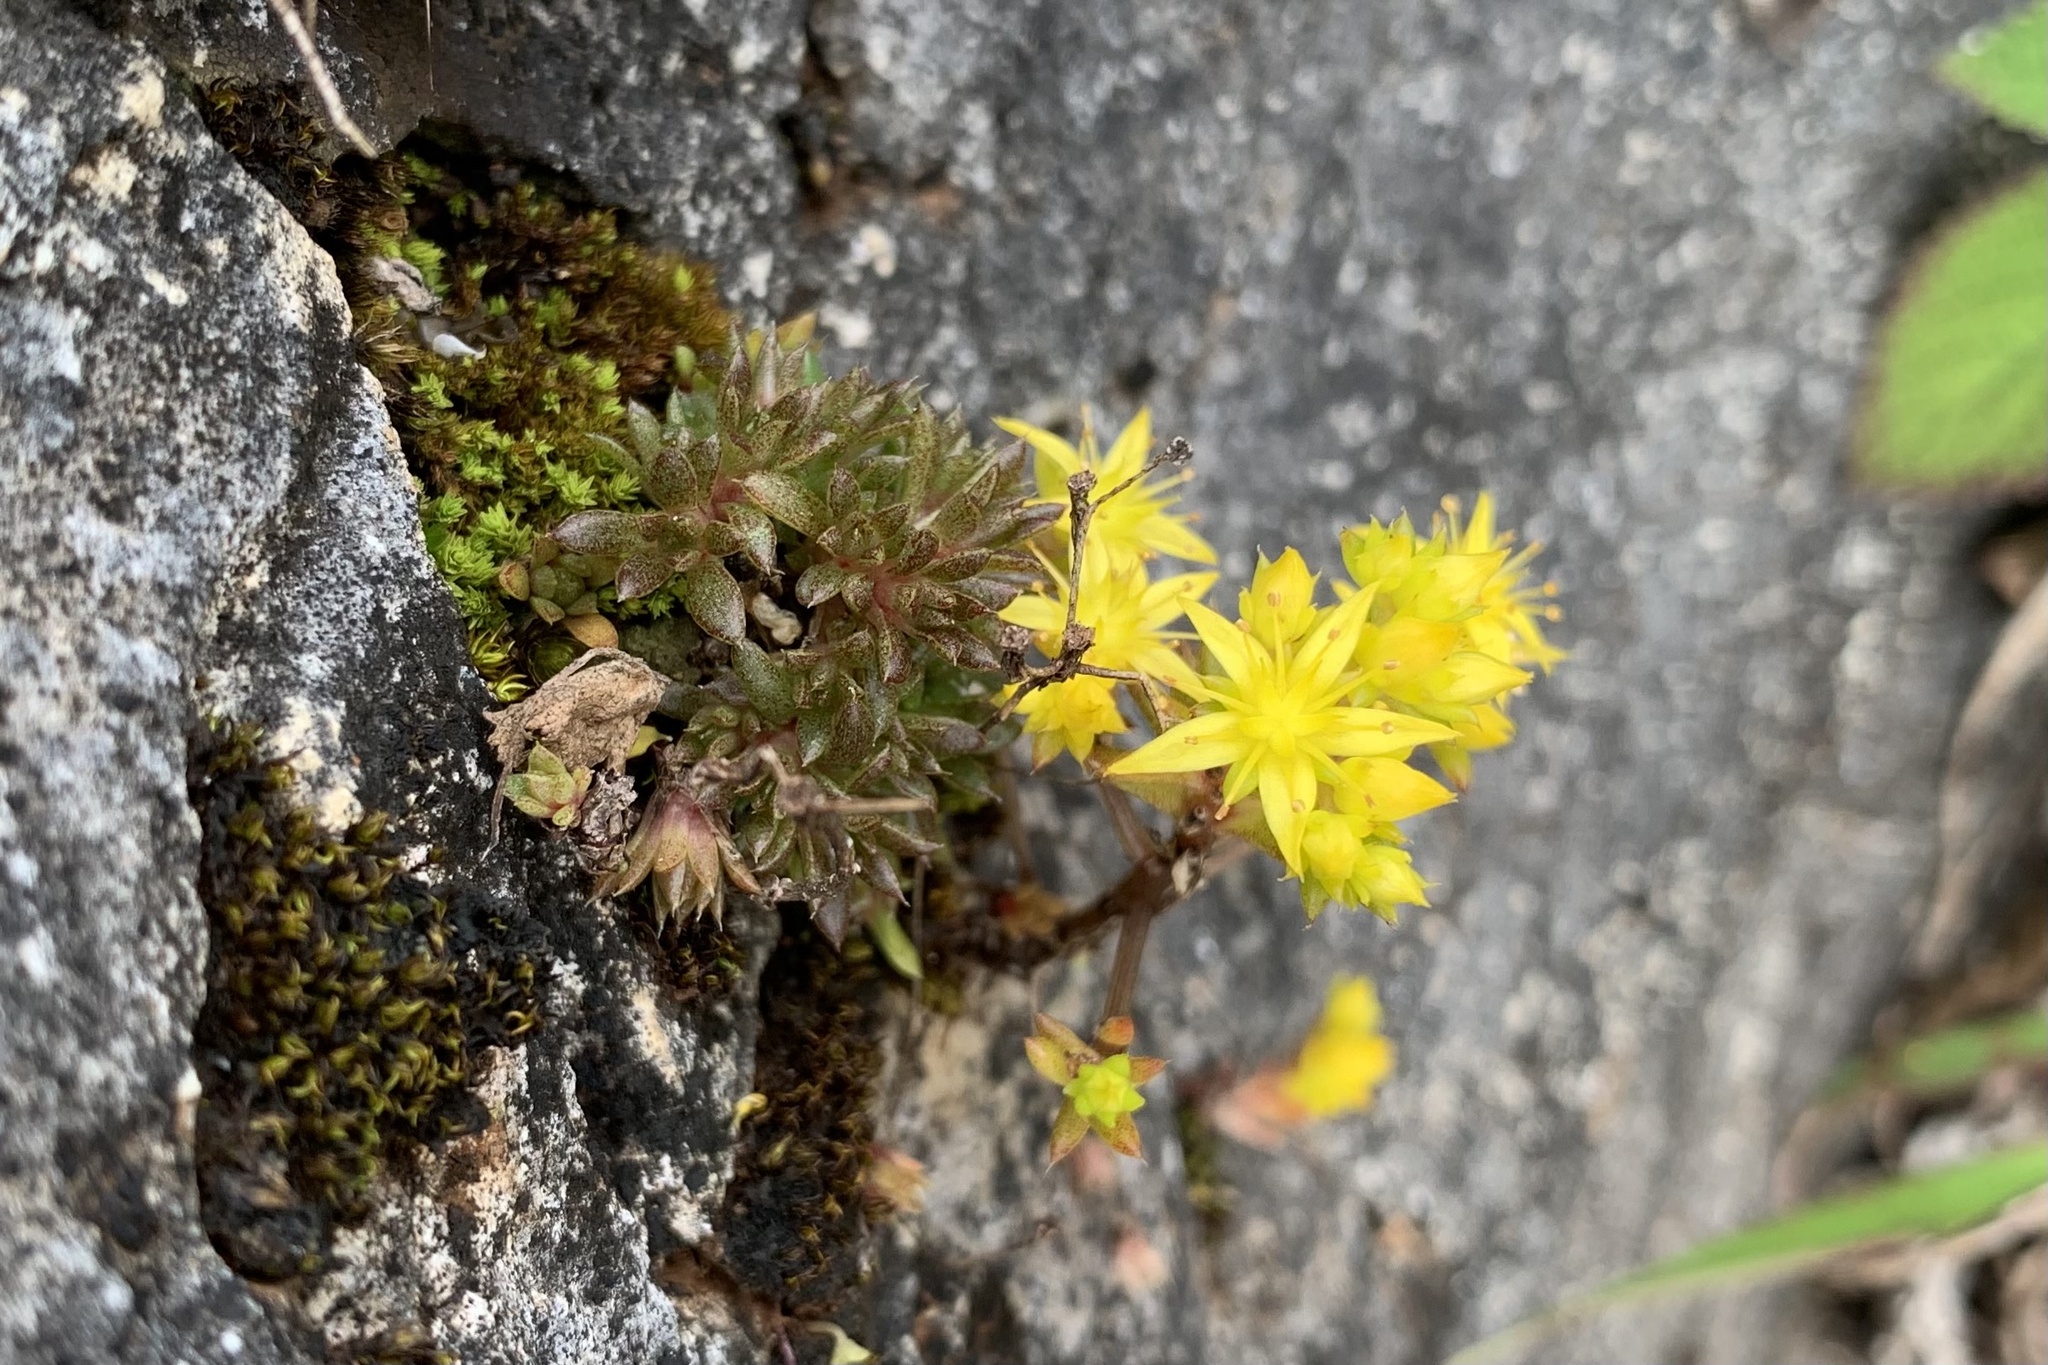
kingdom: Plantae
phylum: Tracheophyta
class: Magnoliopsida
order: Saxifragales
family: Crassulaceae
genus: Sedum
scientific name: Sedum susannae
